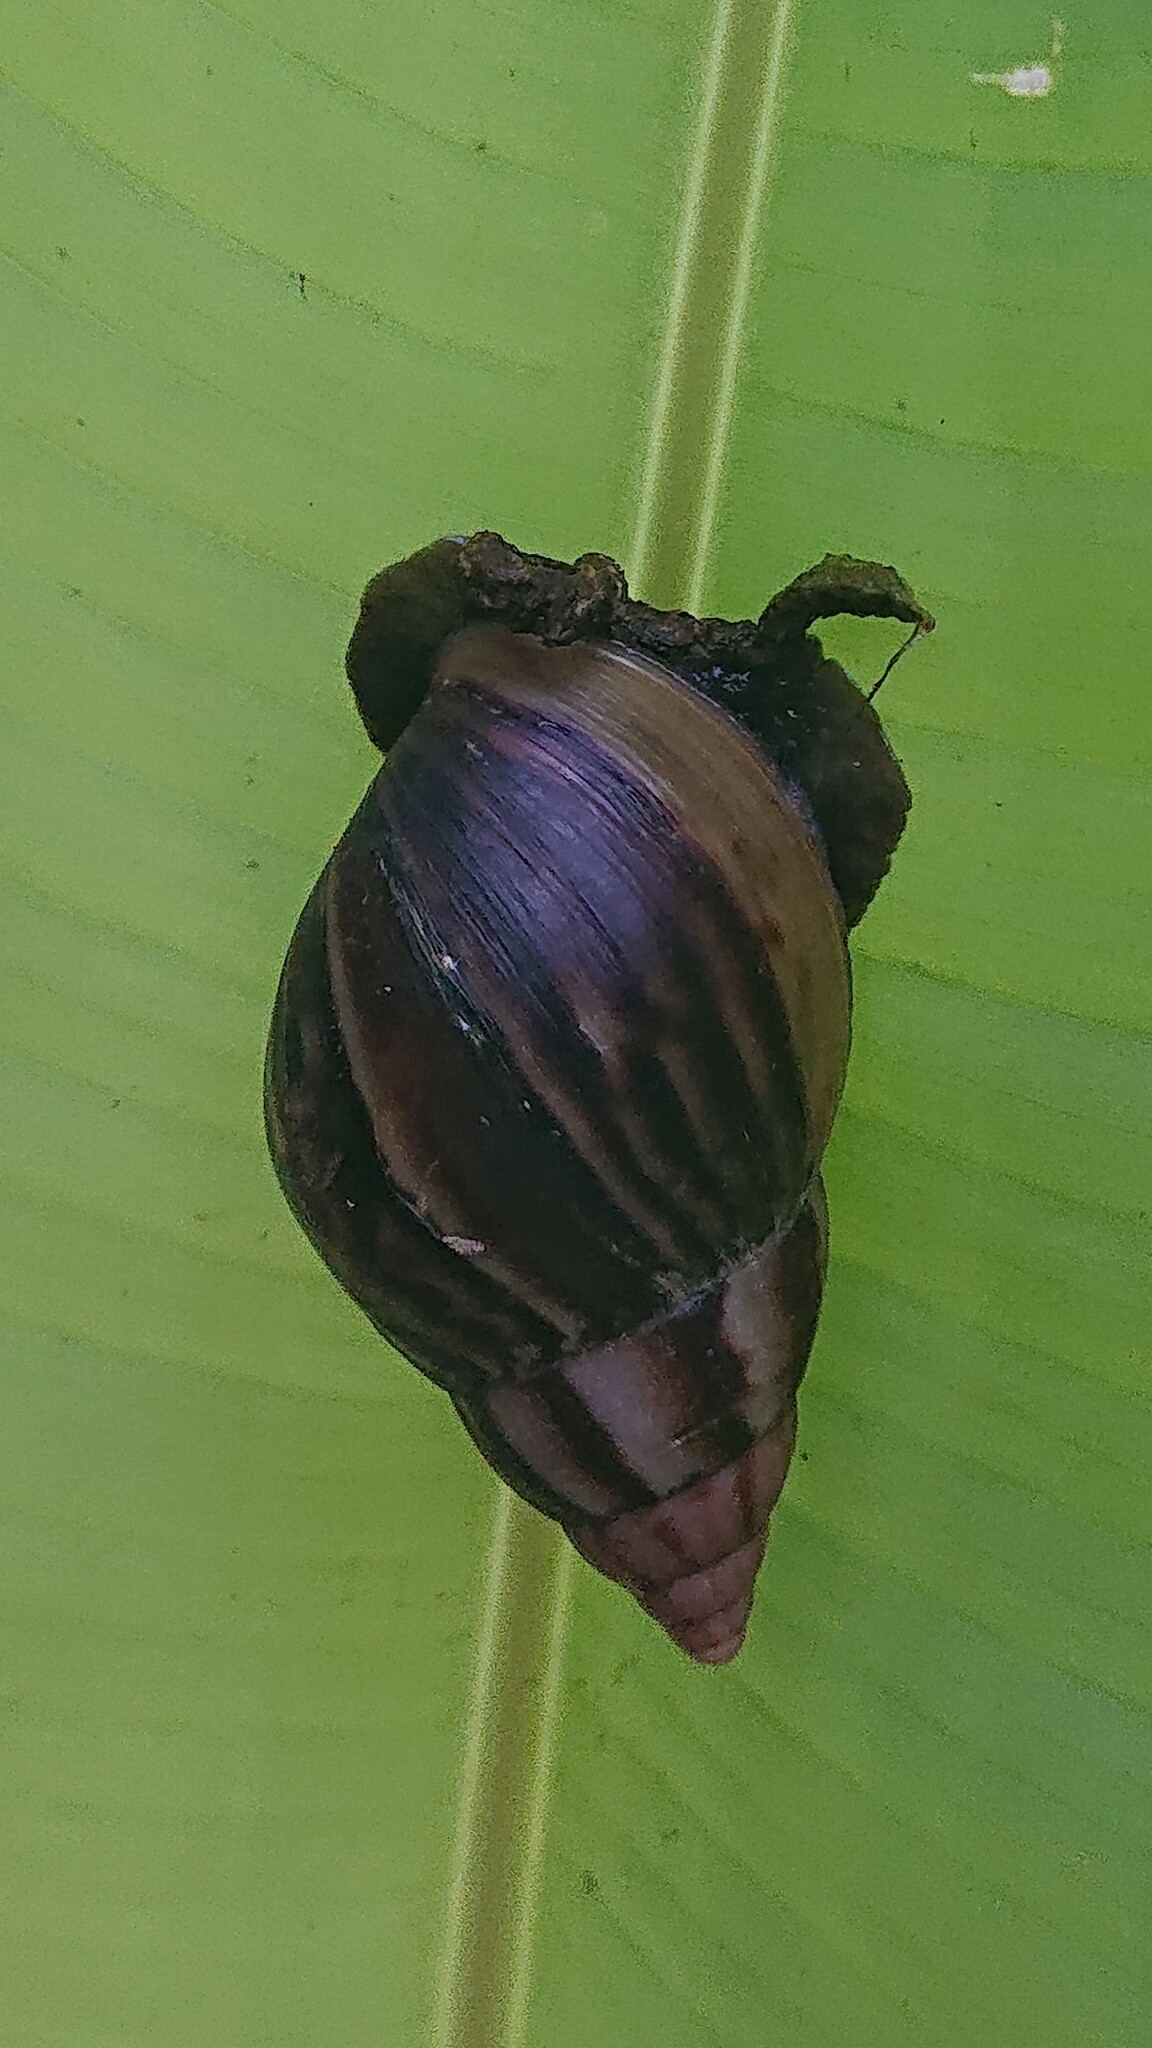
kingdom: Animalia
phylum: Mollusca
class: Gastropoda
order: Stylommatophora
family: Achatinidae
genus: Lissachatina
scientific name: Lissachatina fulica
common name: Giant african snail
